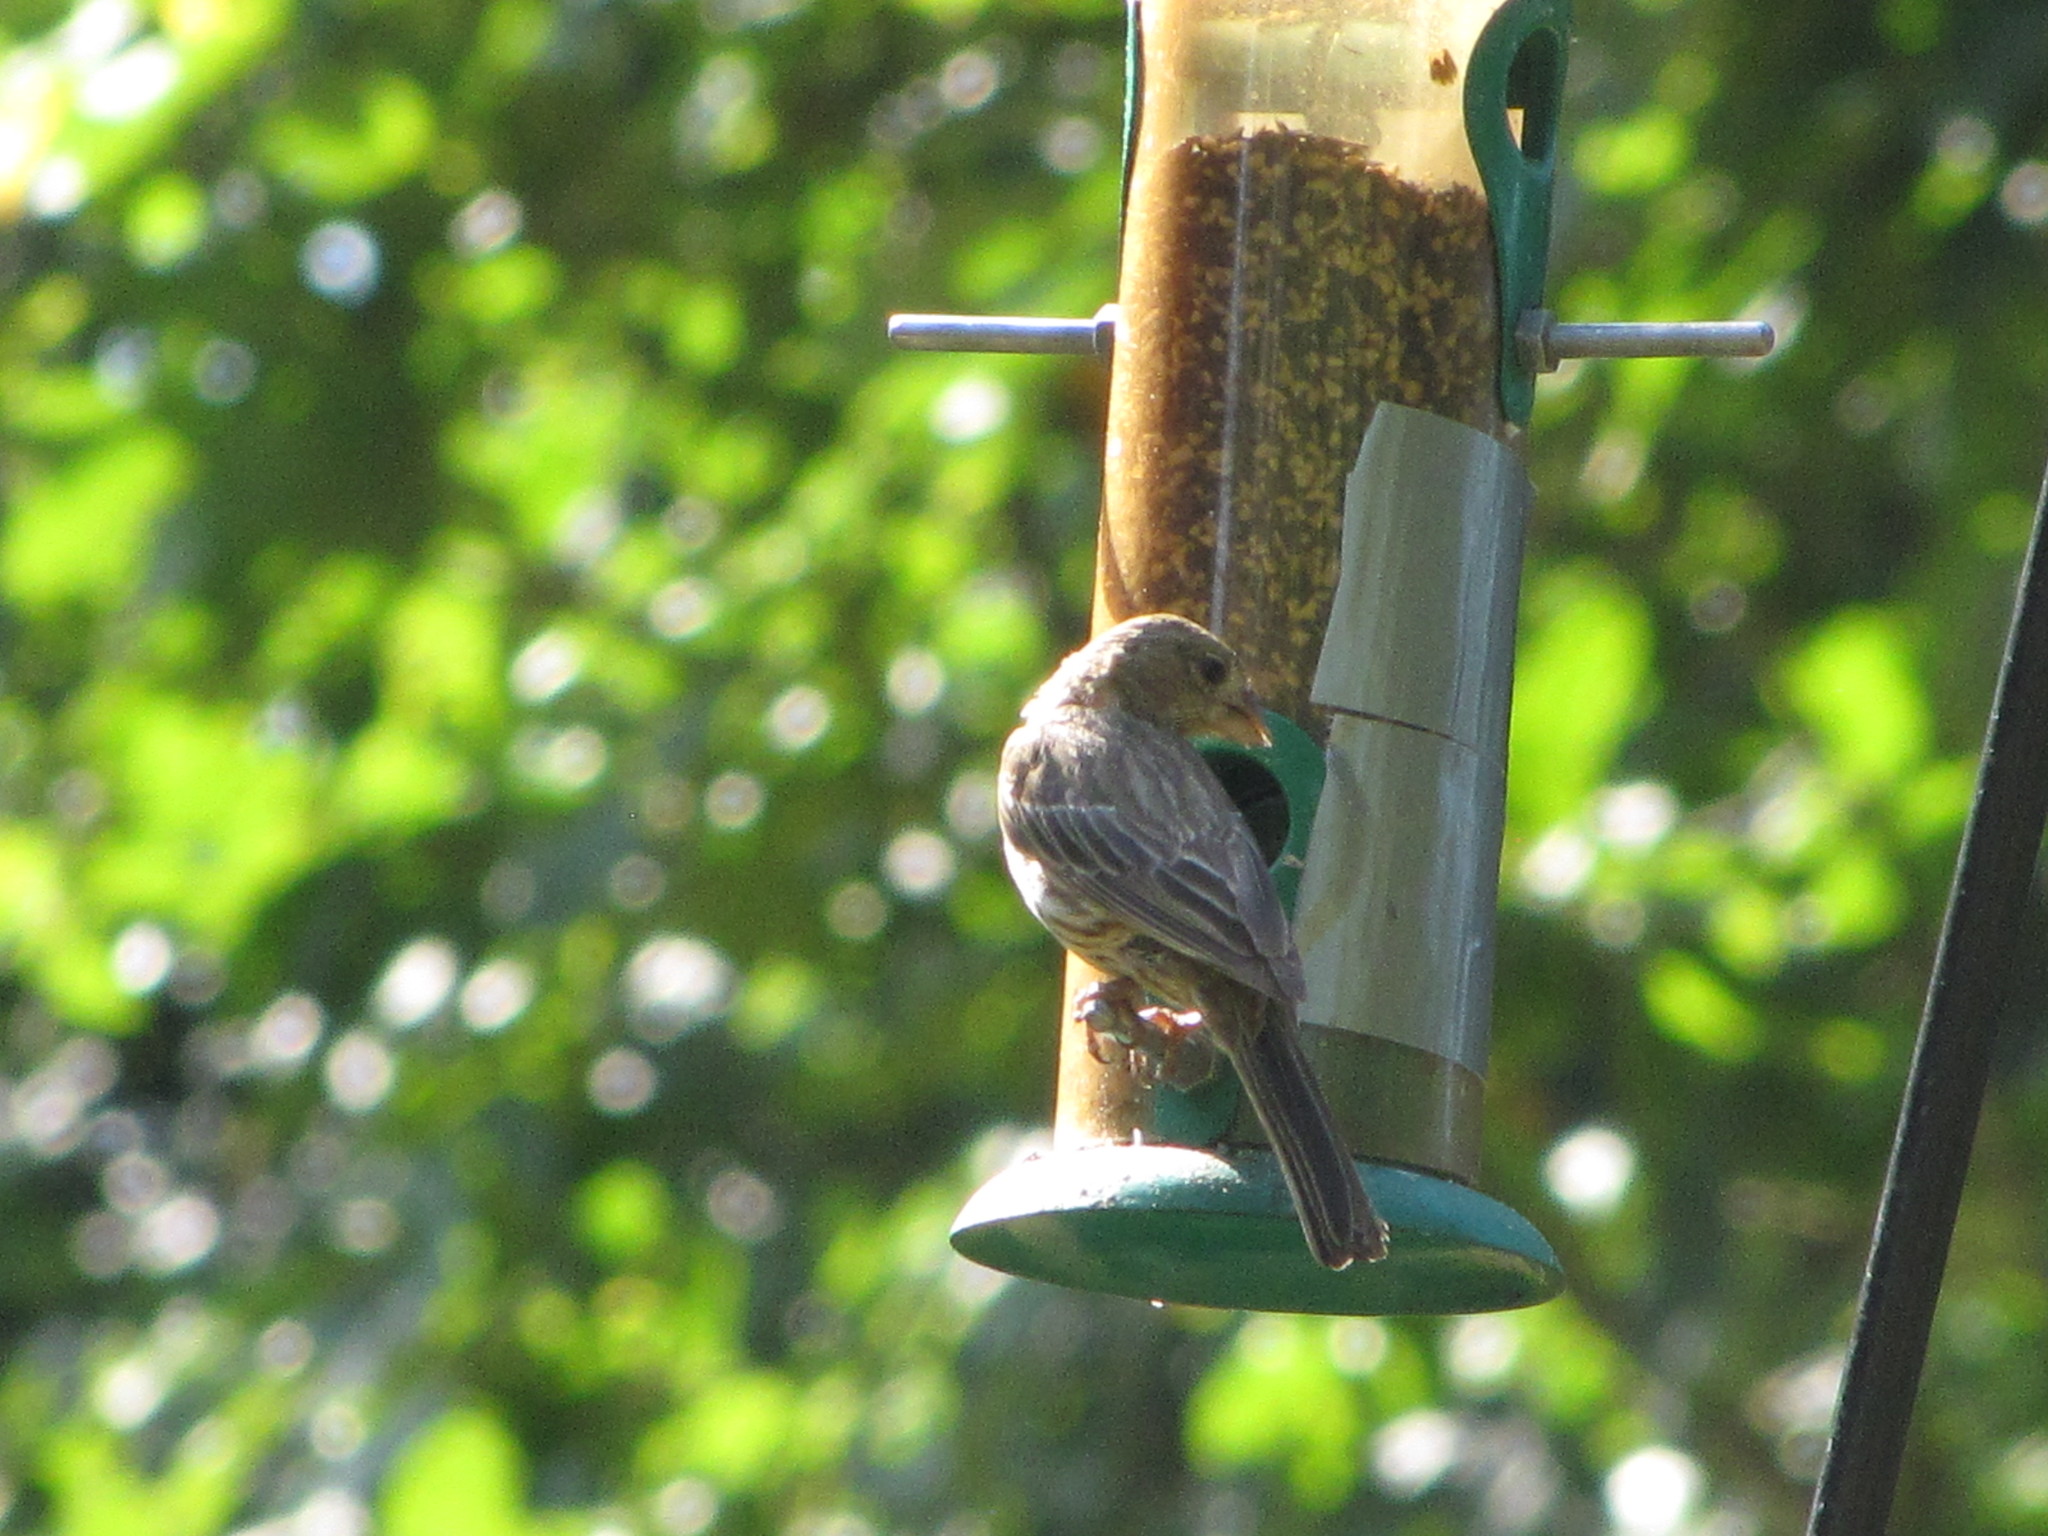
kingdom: Animalia
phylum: Chordata
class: Aves
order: Passeriformes
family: Fringillidae
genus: Haemorhous
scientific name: Haemorhous mexicanus
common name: House finch
